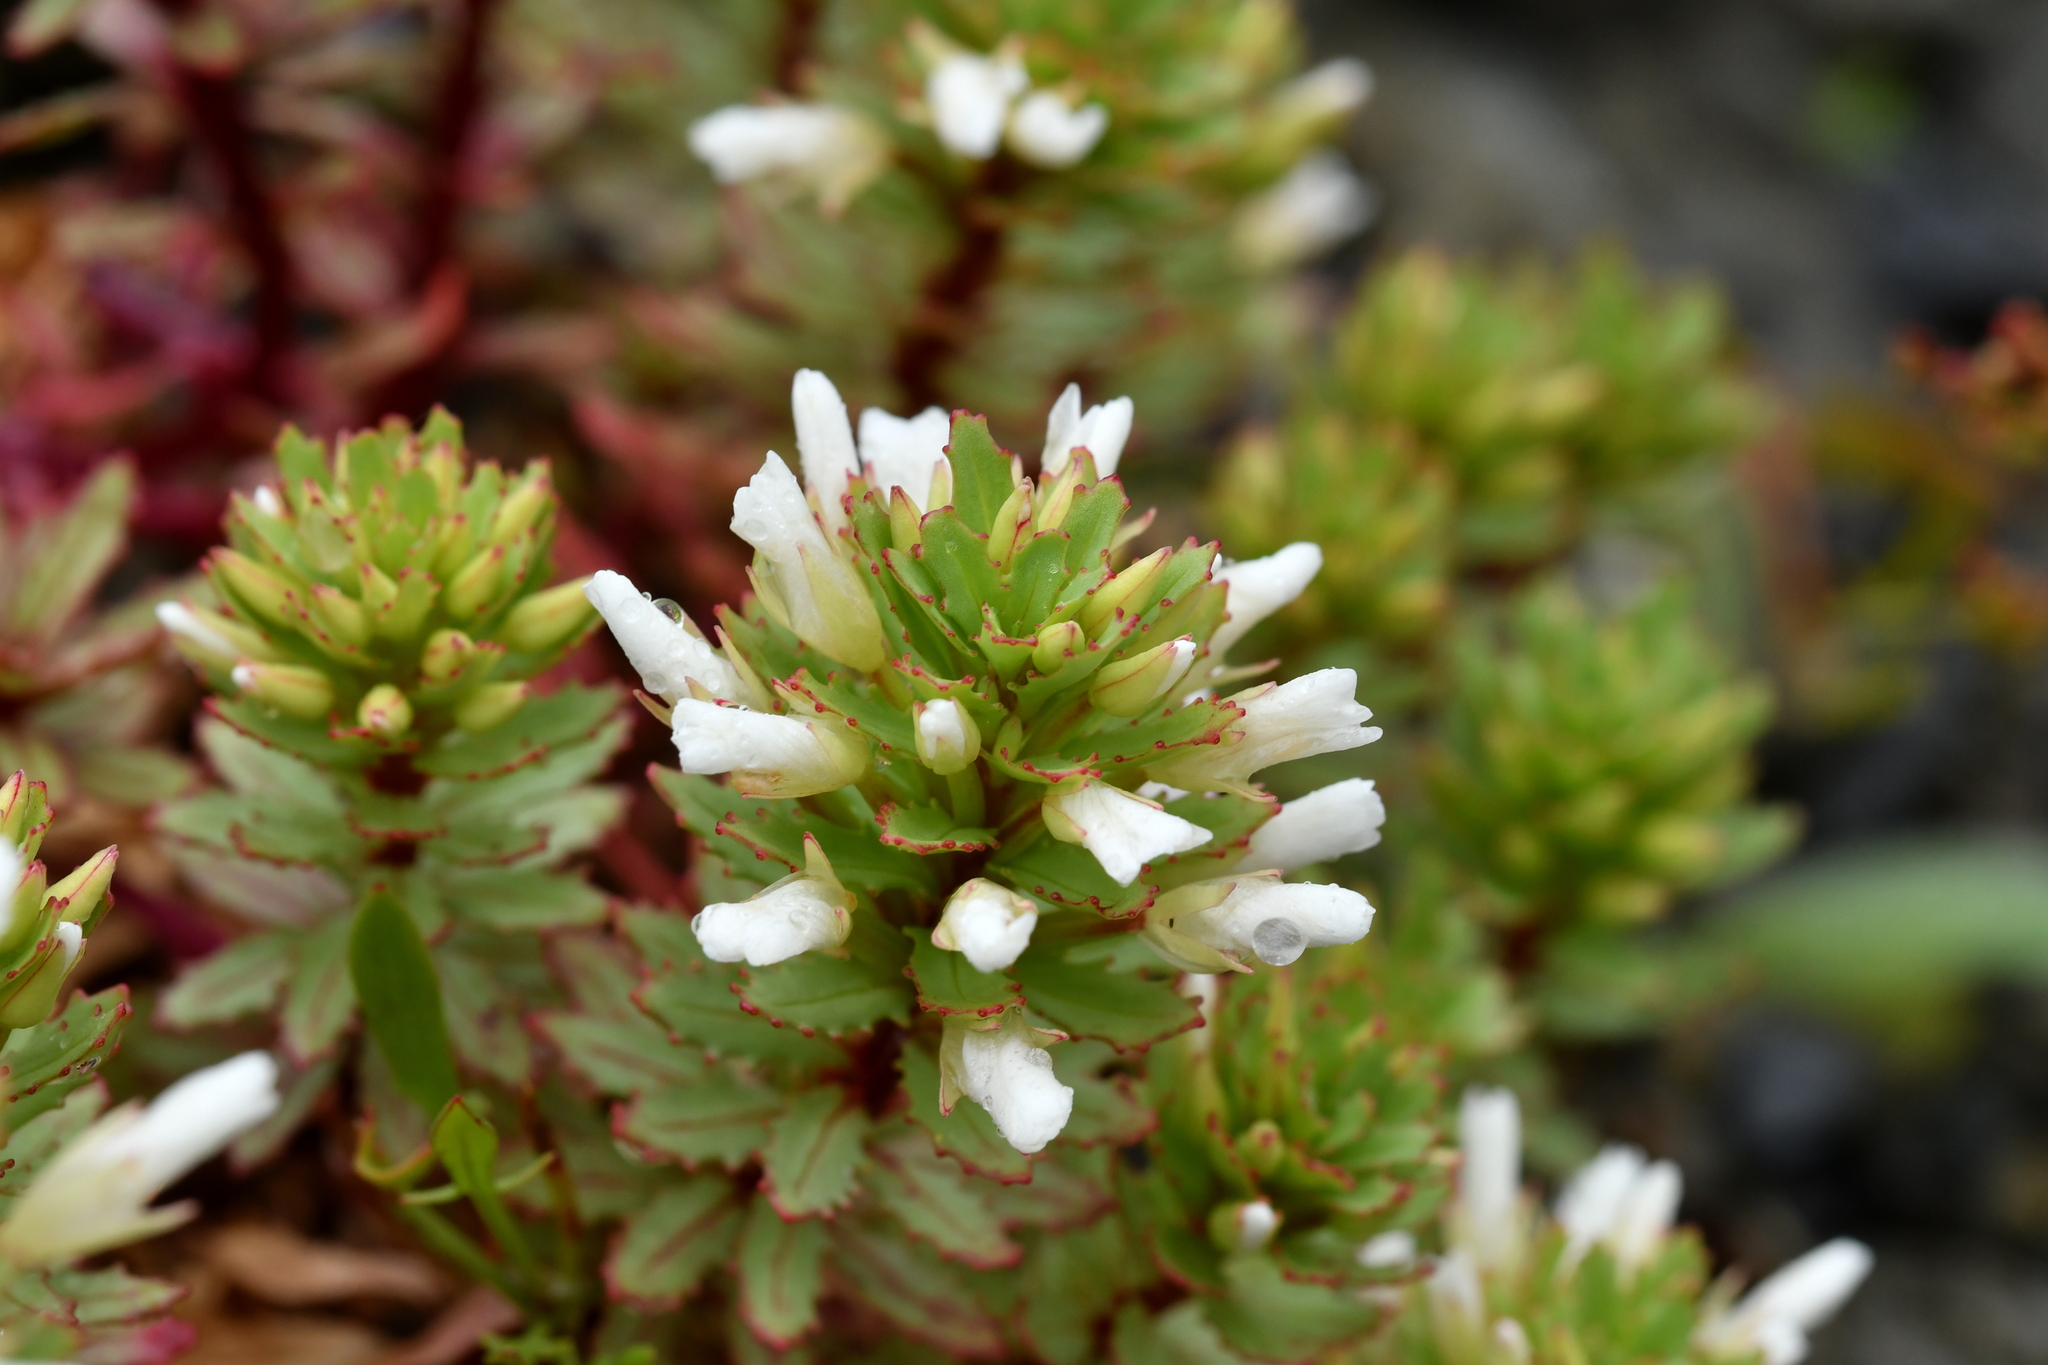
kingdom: Plantae
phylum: Tracheophyta
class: Magnoliopsida
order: Myrtales
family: Onagraceae
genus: Epilobium
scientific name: Epilobium pycnostachyum
